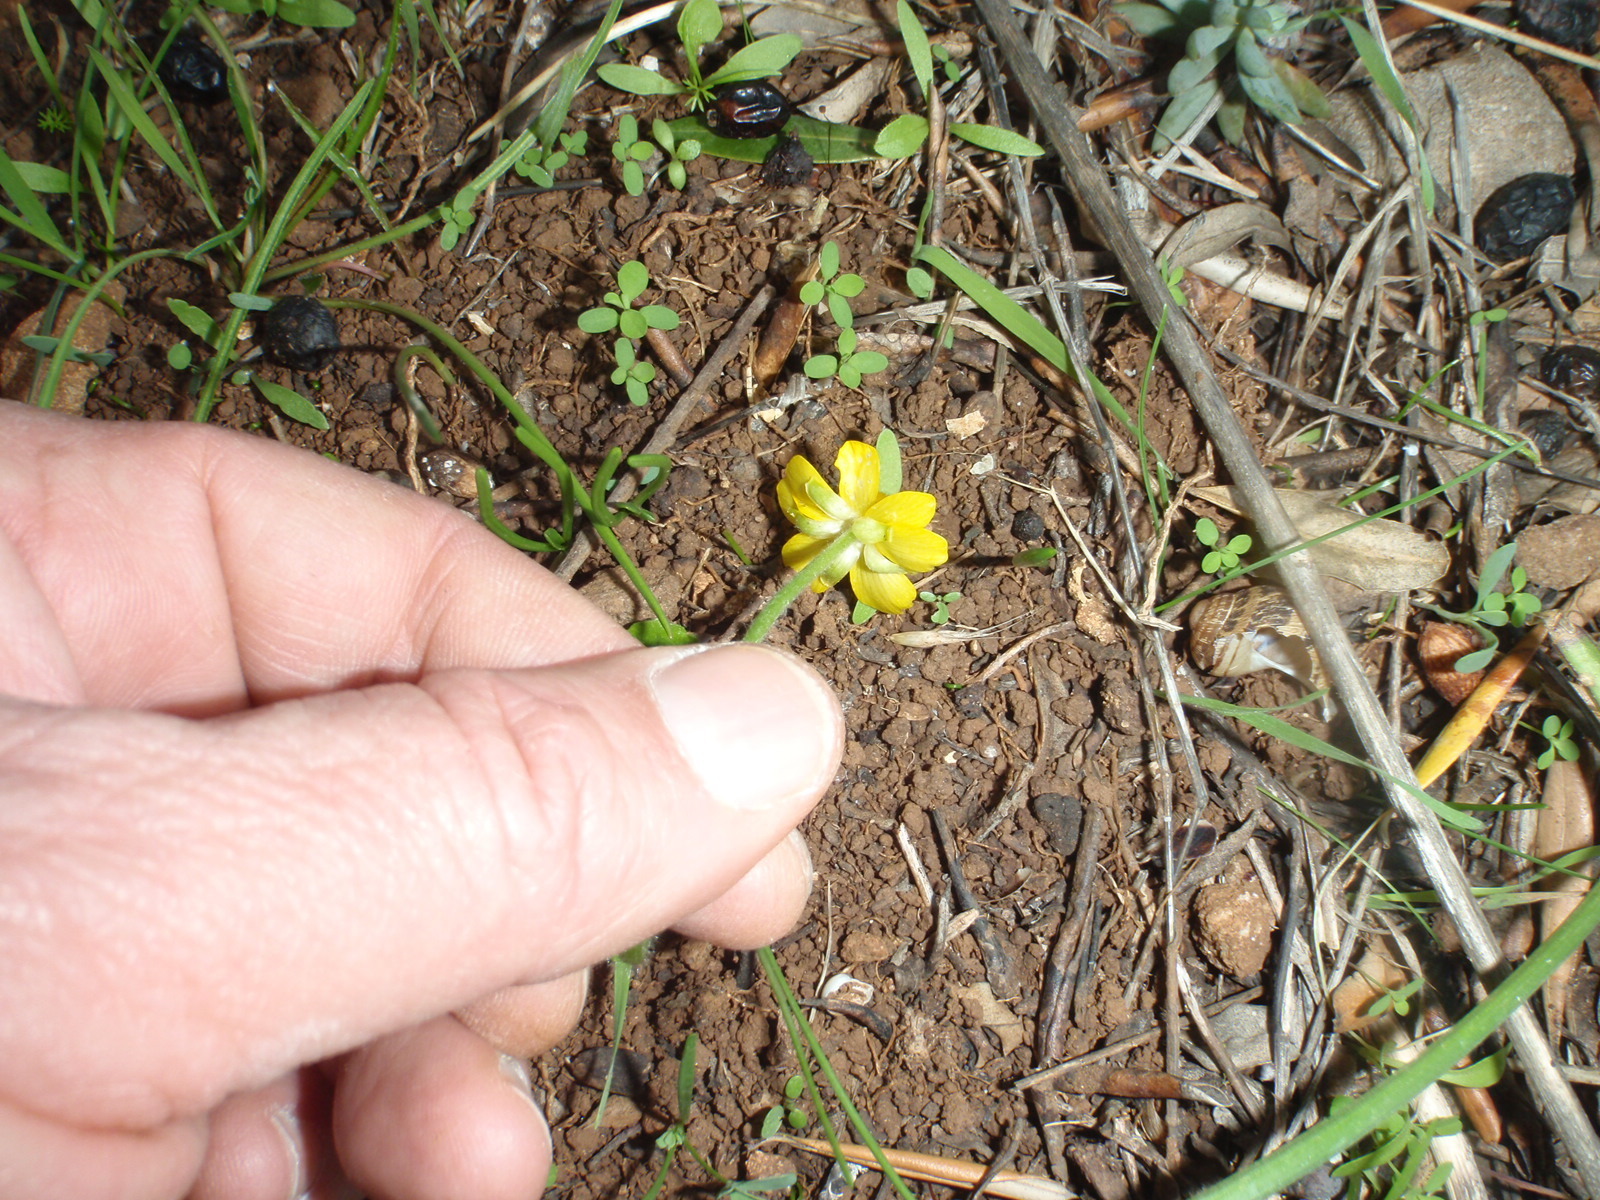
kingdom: Plantae
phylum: Tracheophyta
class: Magnoliopsida
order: Ranunculales
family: Ranunculaceae
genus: Ranunculus
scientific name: Ranunculus bullatus
